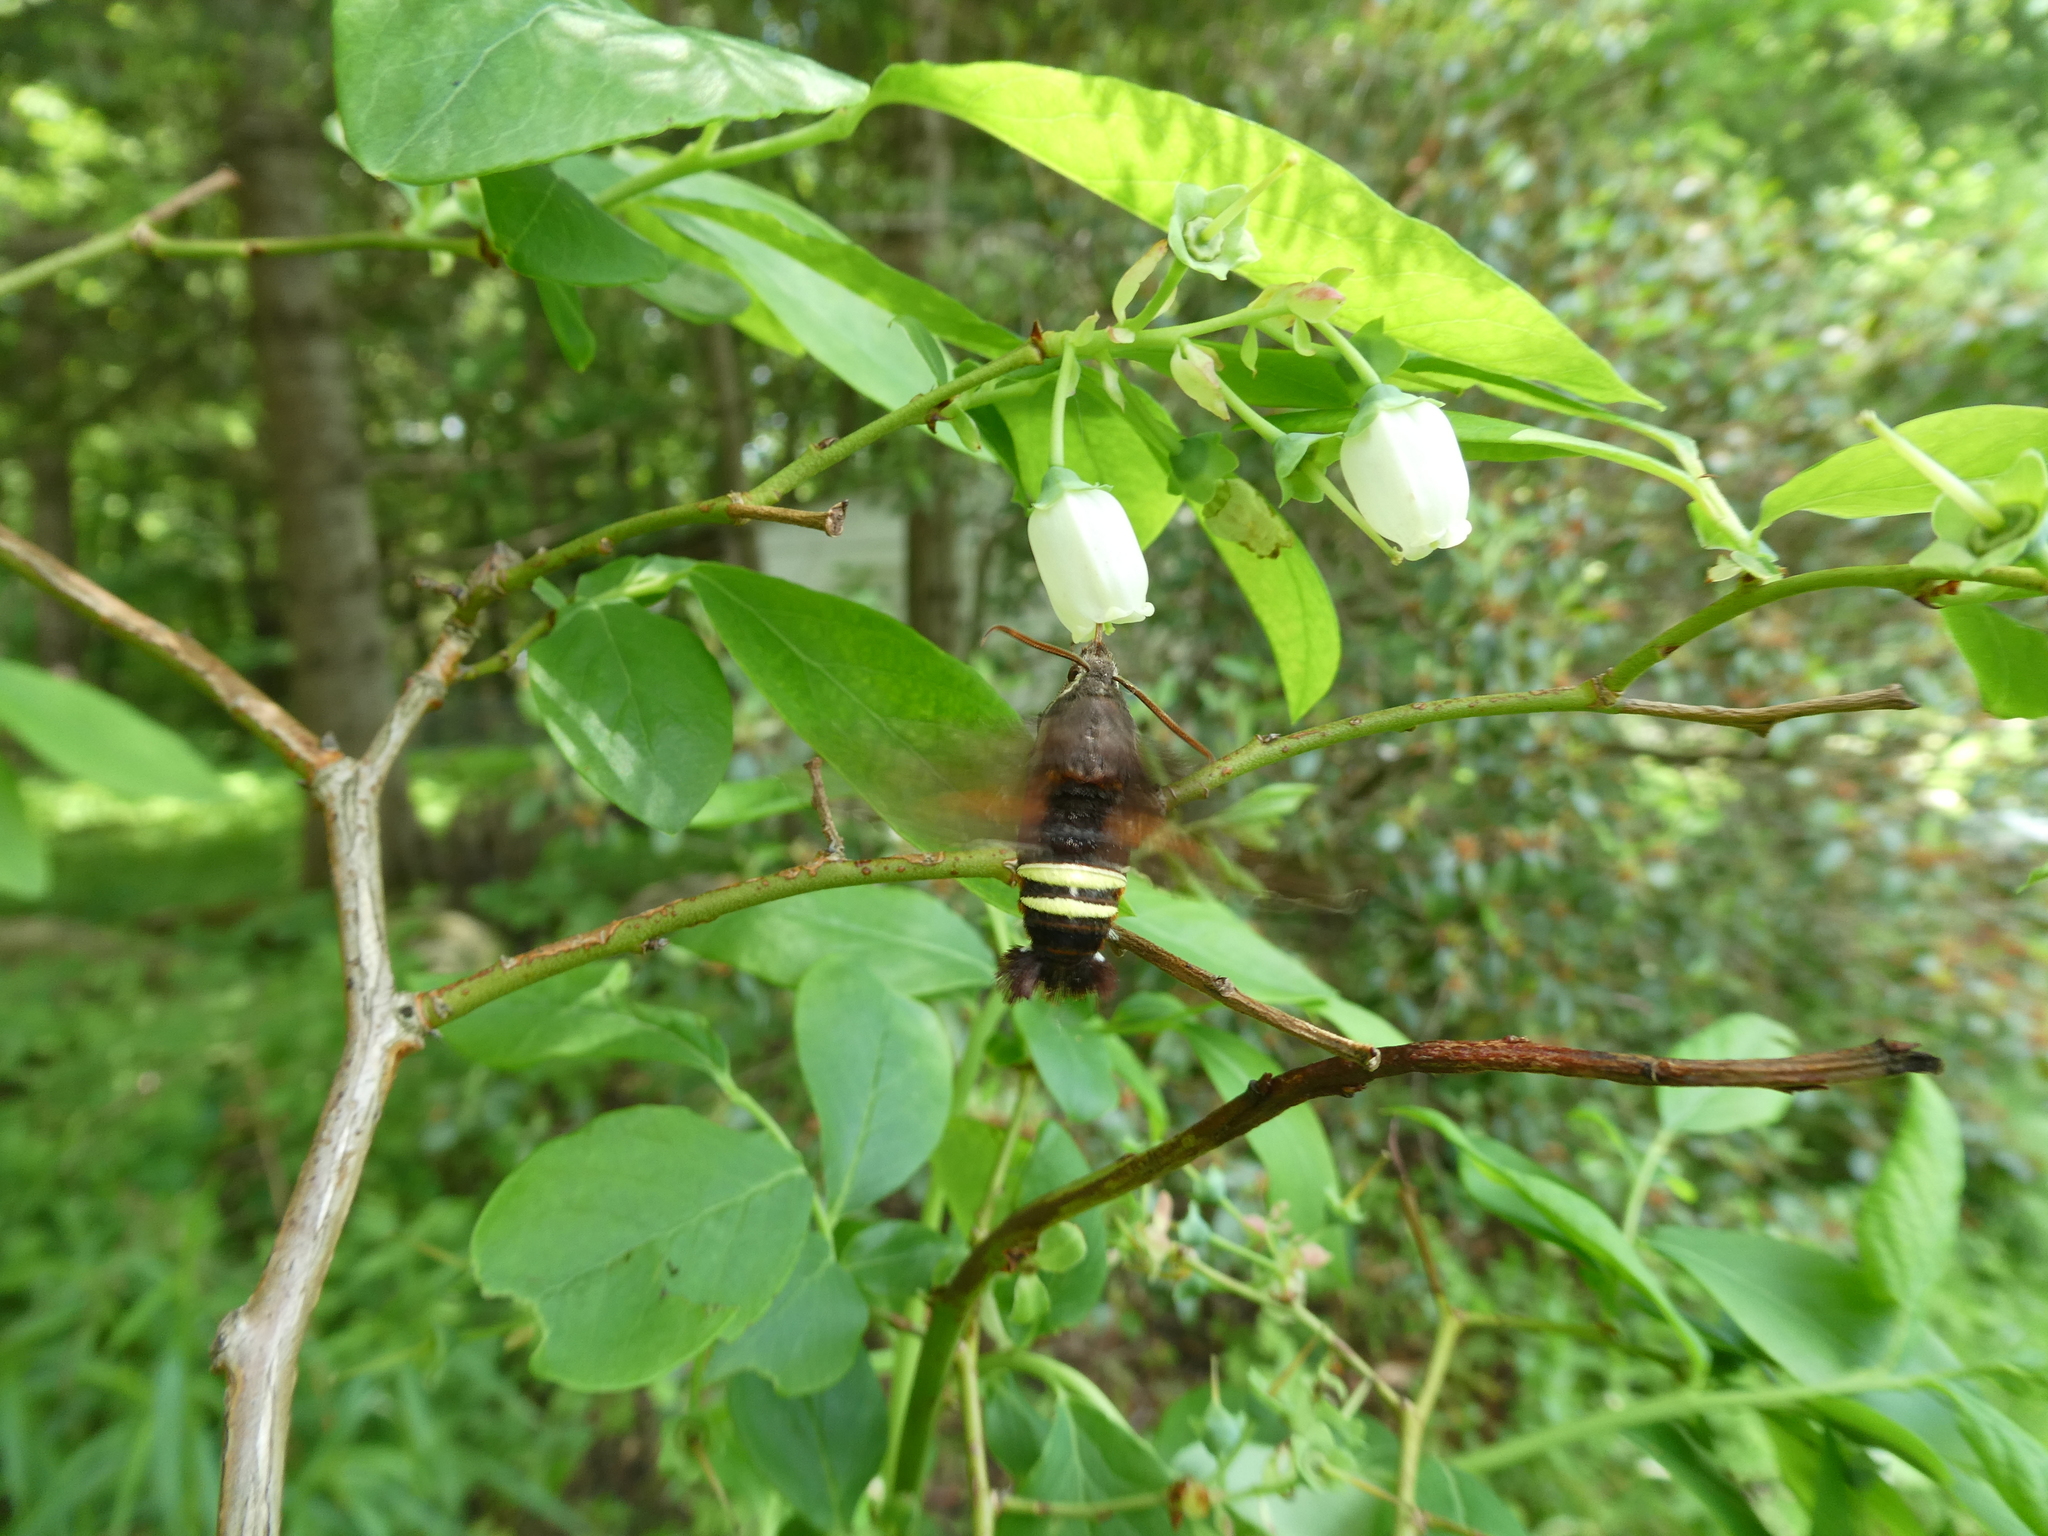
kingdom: Animalia
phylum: Arthropoda
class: Insecta
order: Lepidoptera
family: Sphingidae
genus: Amphion
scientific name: Amphion floridensis
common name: Nessus sphinx
